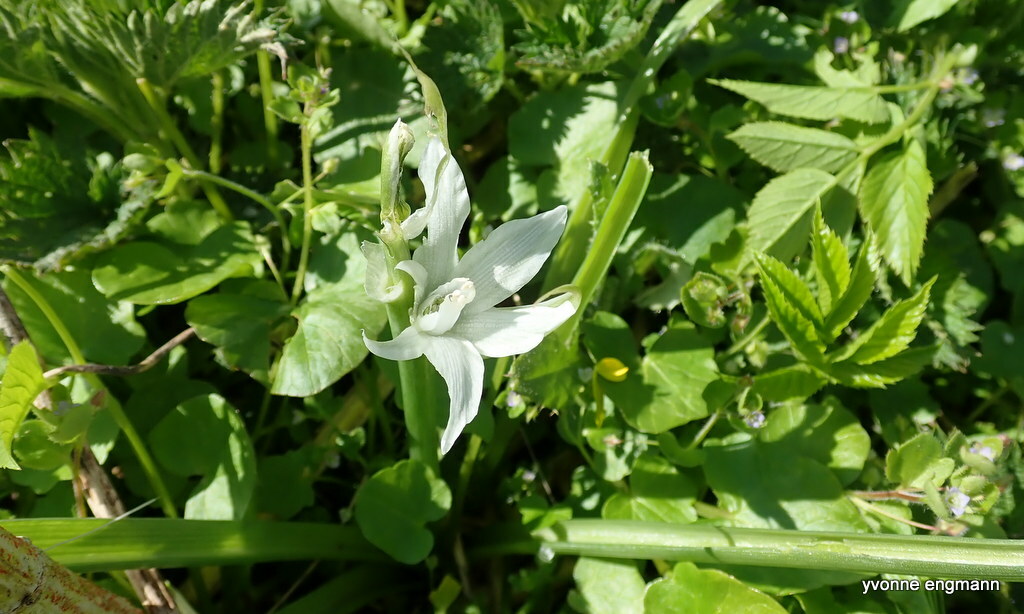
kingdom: Plantae
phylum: Tracheophyta
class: Liliopsida
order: Asparagales
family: Asparagaceae
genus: Ornithogalum
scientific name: Ornithogalum nutans
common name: Drooping star-of-bethlehem
